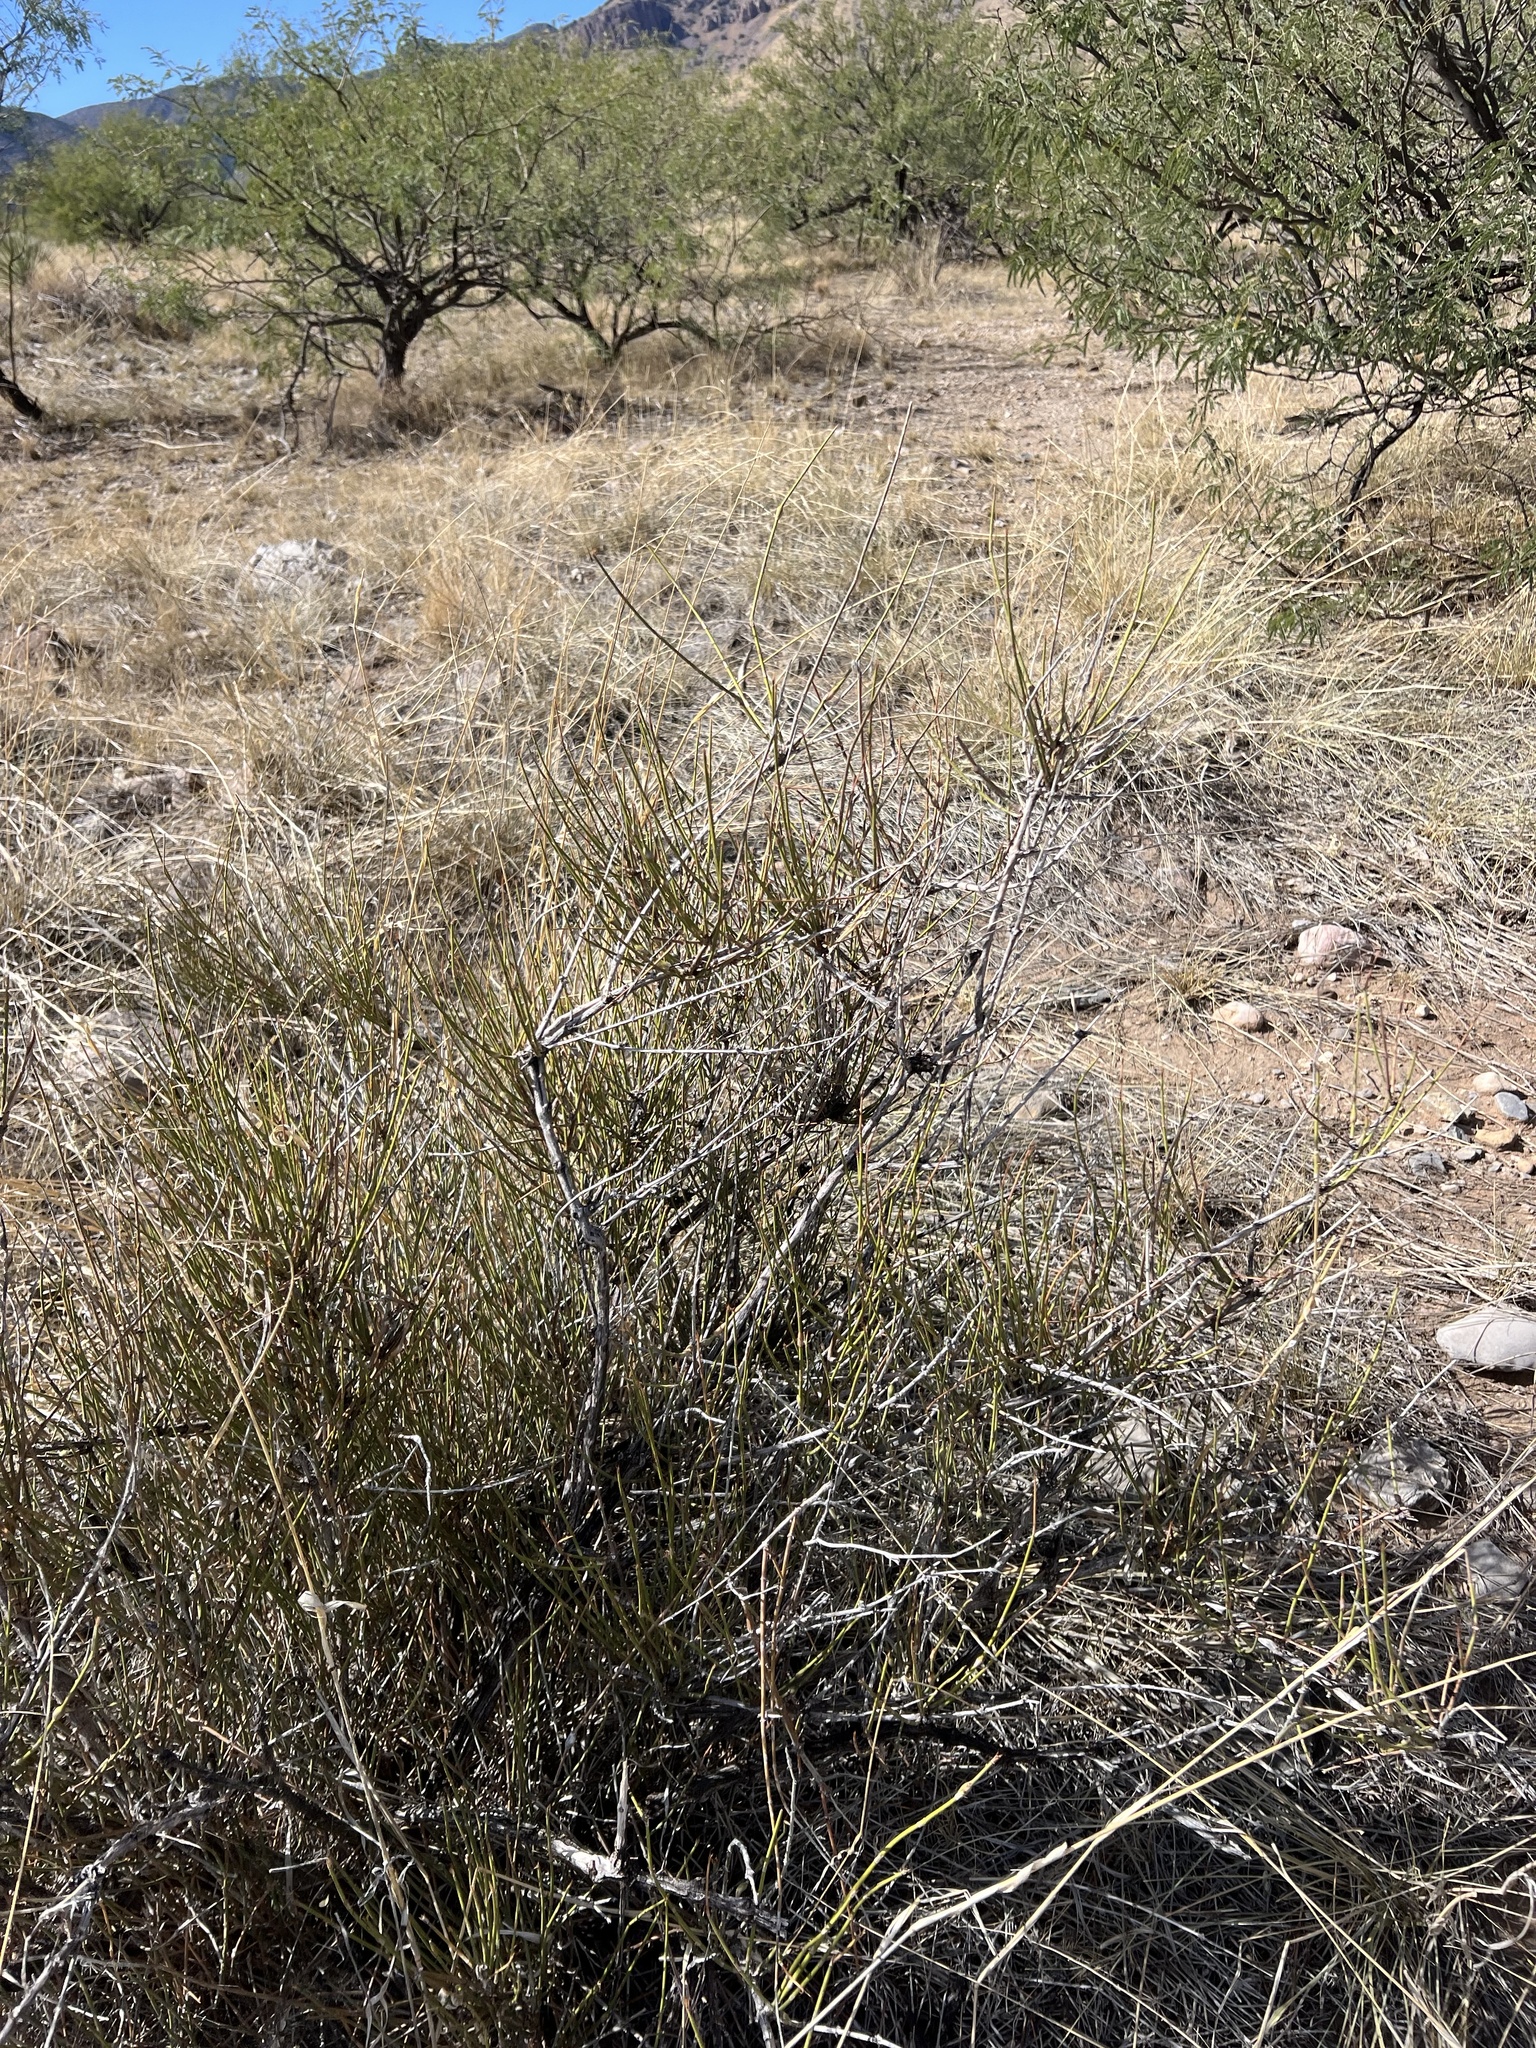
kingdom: Plantae
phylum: Tracheophyta
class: Gnetopsida
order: Ephedrales
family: Ephedraceae
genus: Ephedra
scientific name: Ephedra trifurca
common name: Mexican-tea
